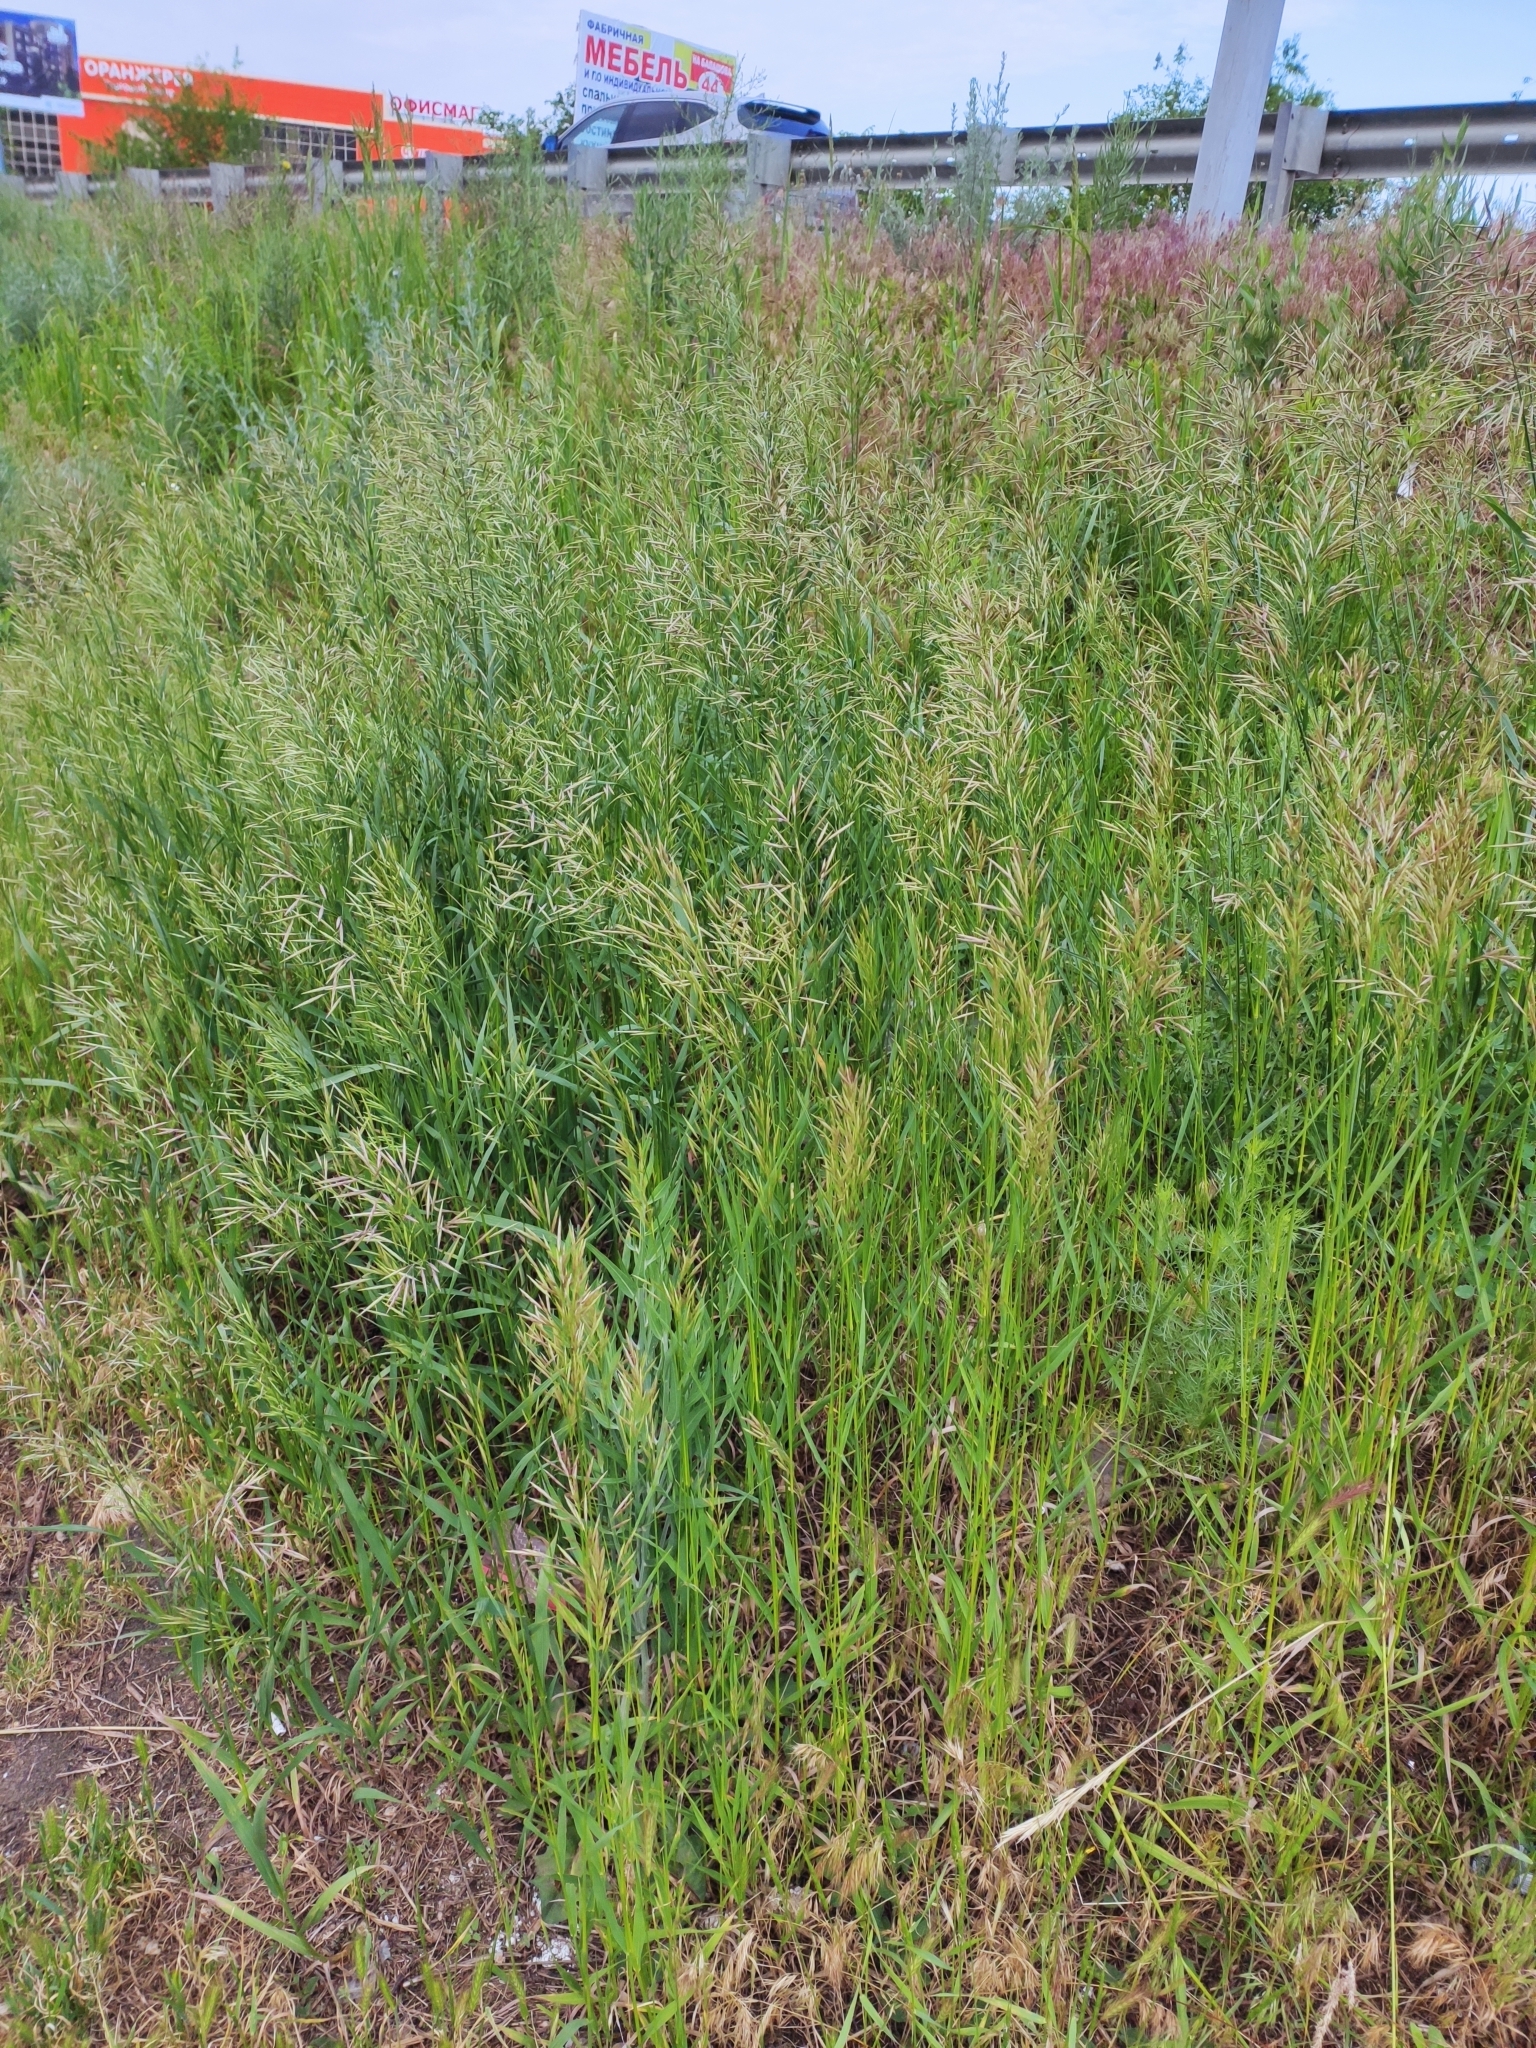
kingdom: Plantae
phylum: Tracheophyta
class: Liliopsida
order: Poales
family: Poaceae
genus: Bromus
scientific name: Bromus inermis
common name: Smooth brome
